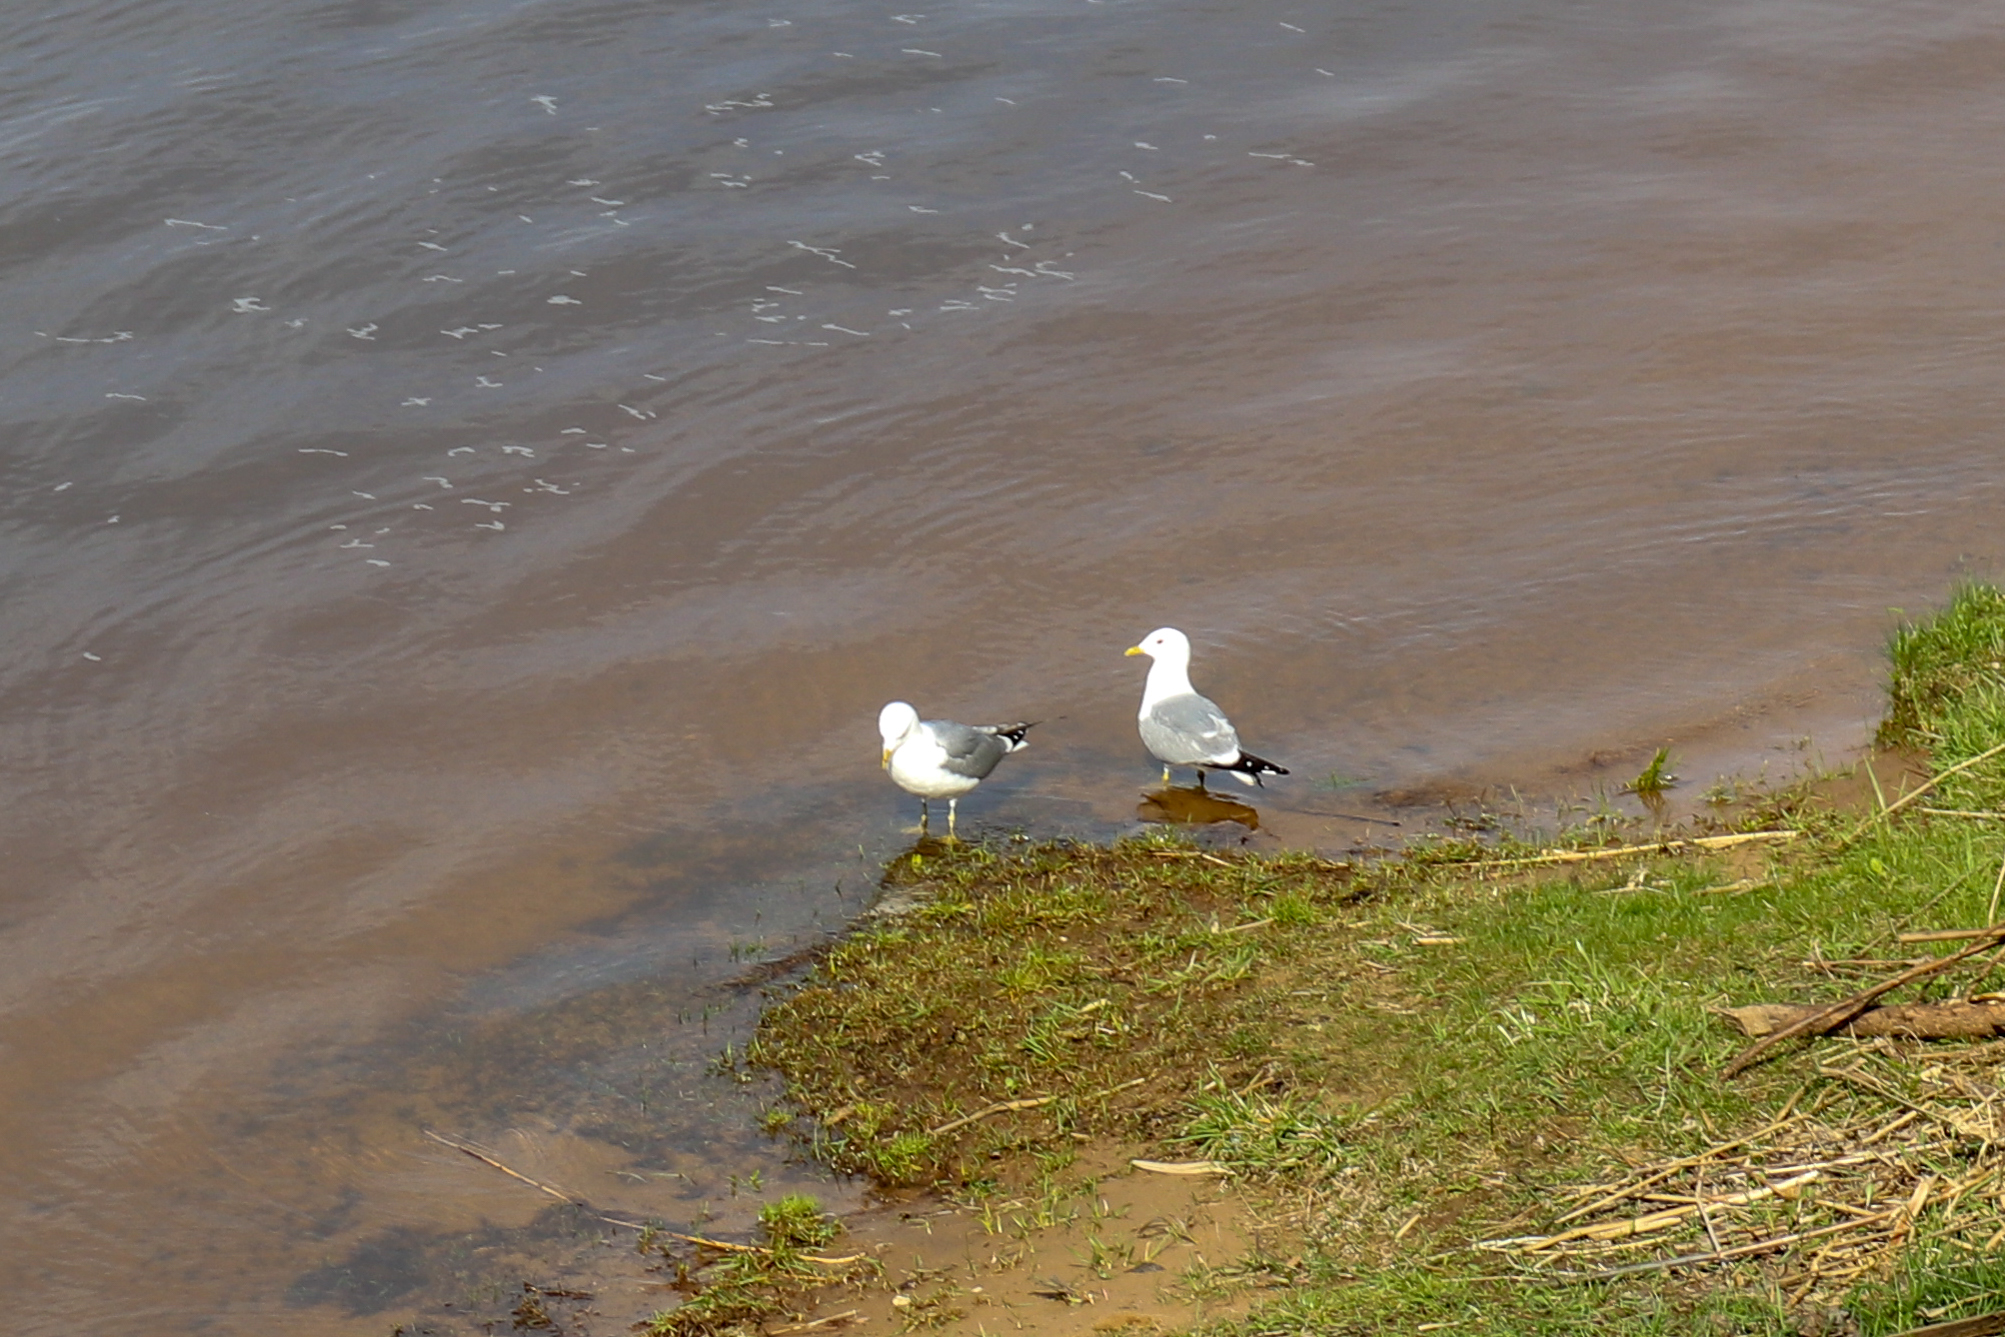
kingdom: Animalia
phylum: Chordata
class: Aves
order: Charadriiformes
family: Laridae
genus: Larus
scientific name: Larus canus
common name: Mew gull
